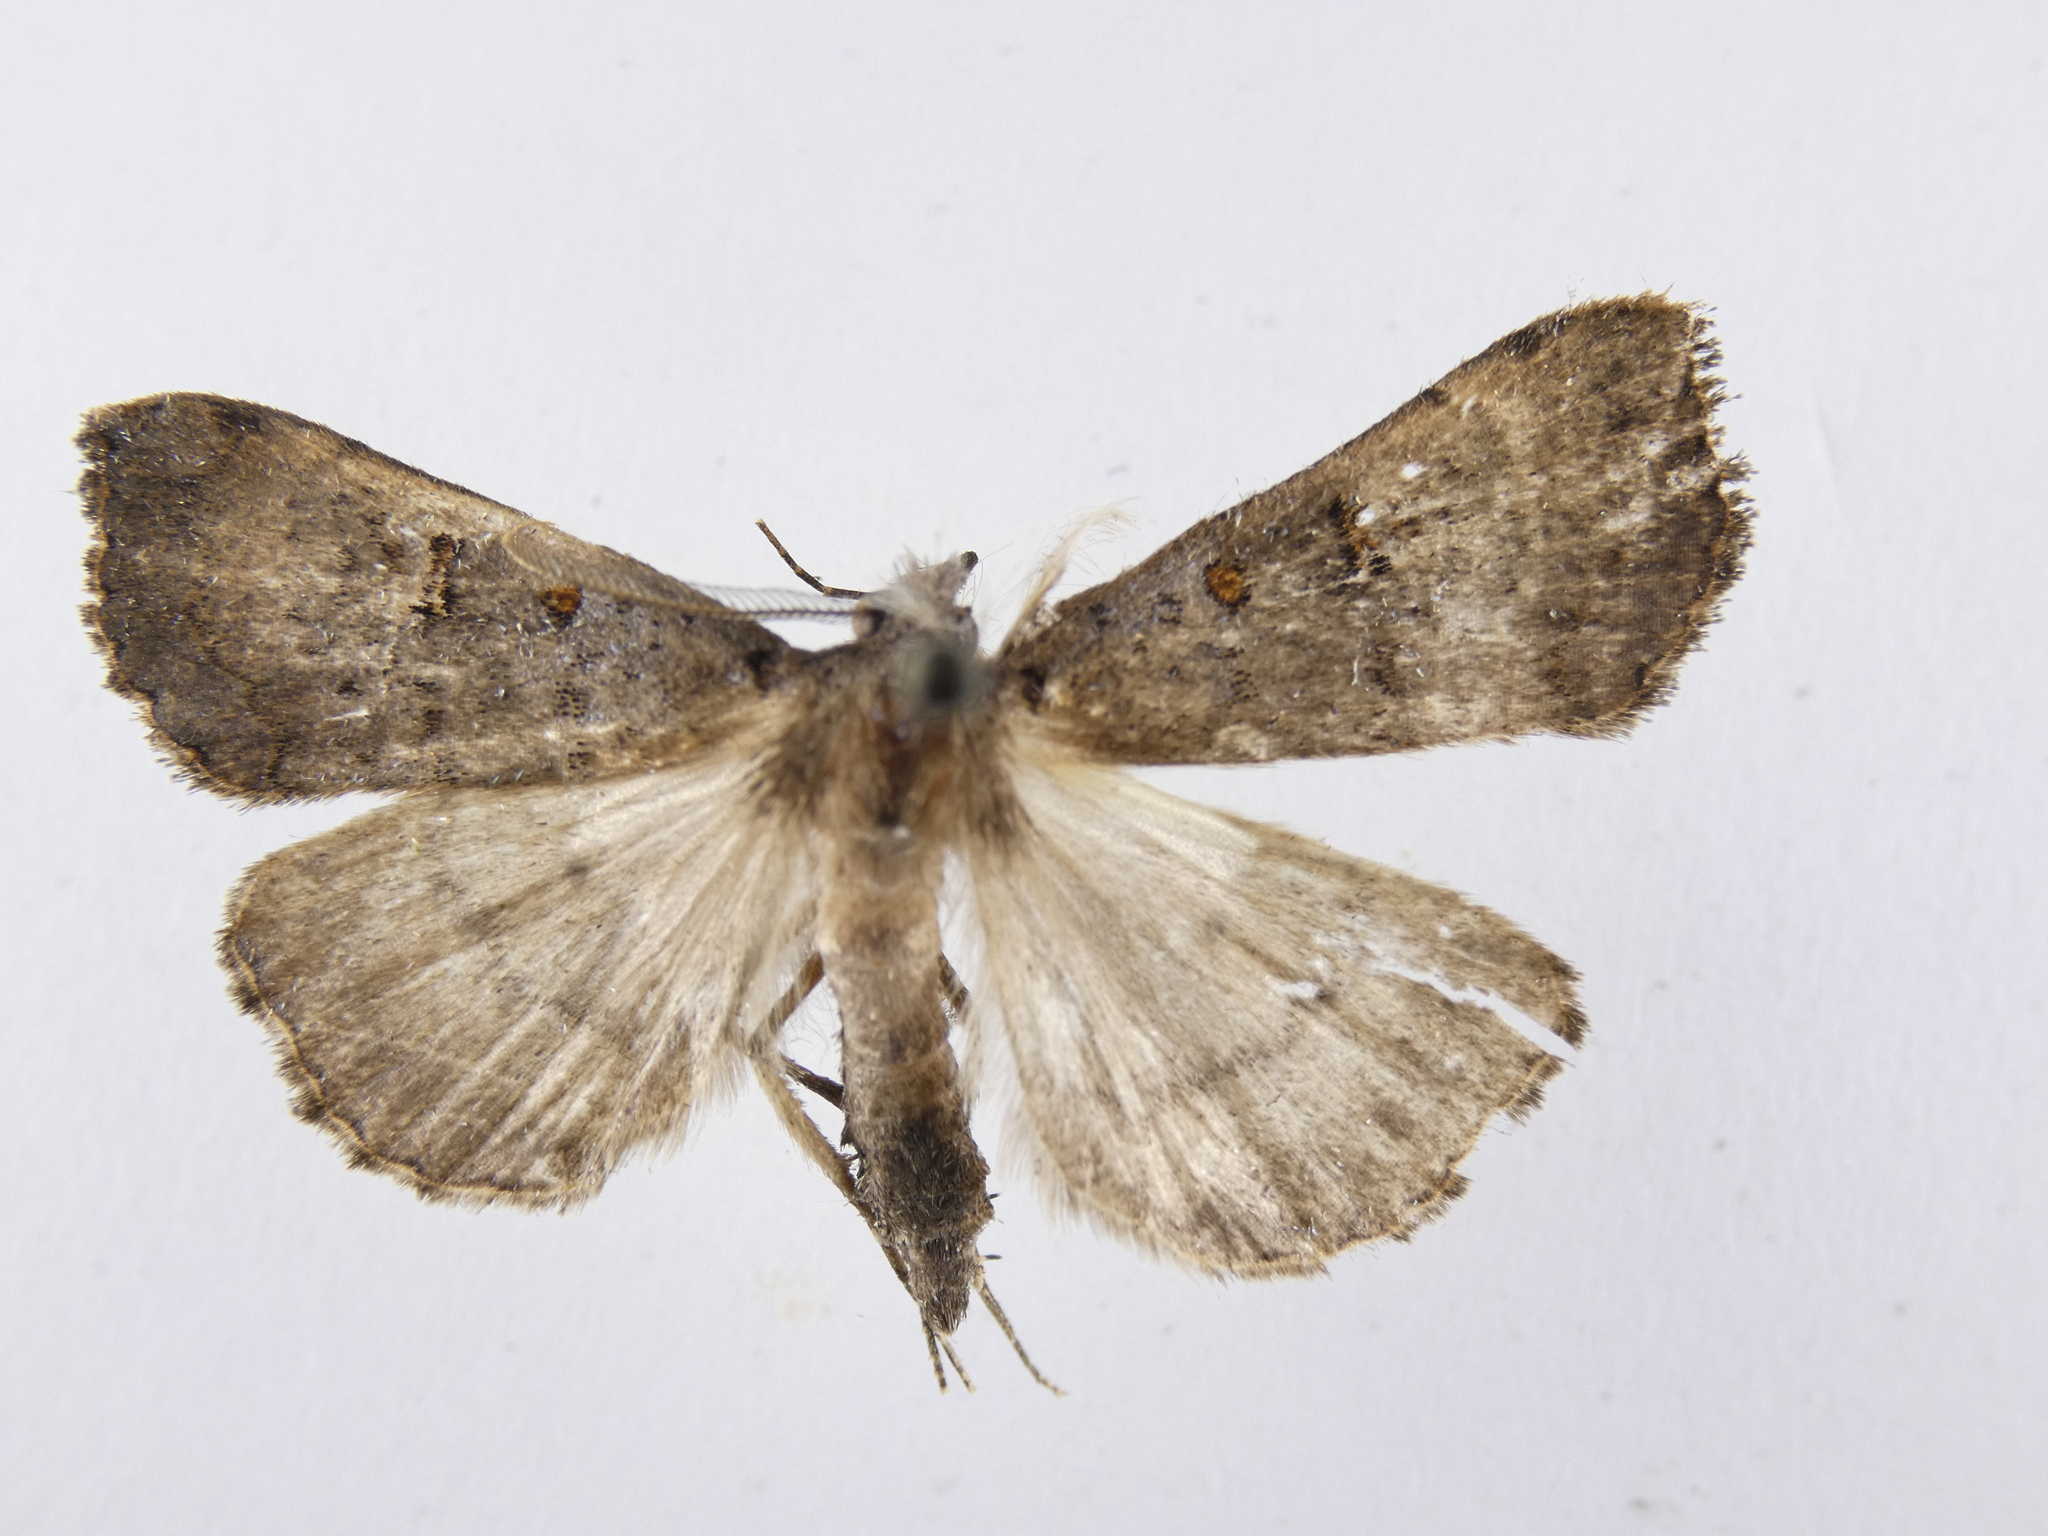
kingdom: Animalia
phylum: Arthropoda
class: Insecta
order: Lepidoptera
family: Erebidae
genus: Rhapsa
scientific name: Rhapsa scotosialis
